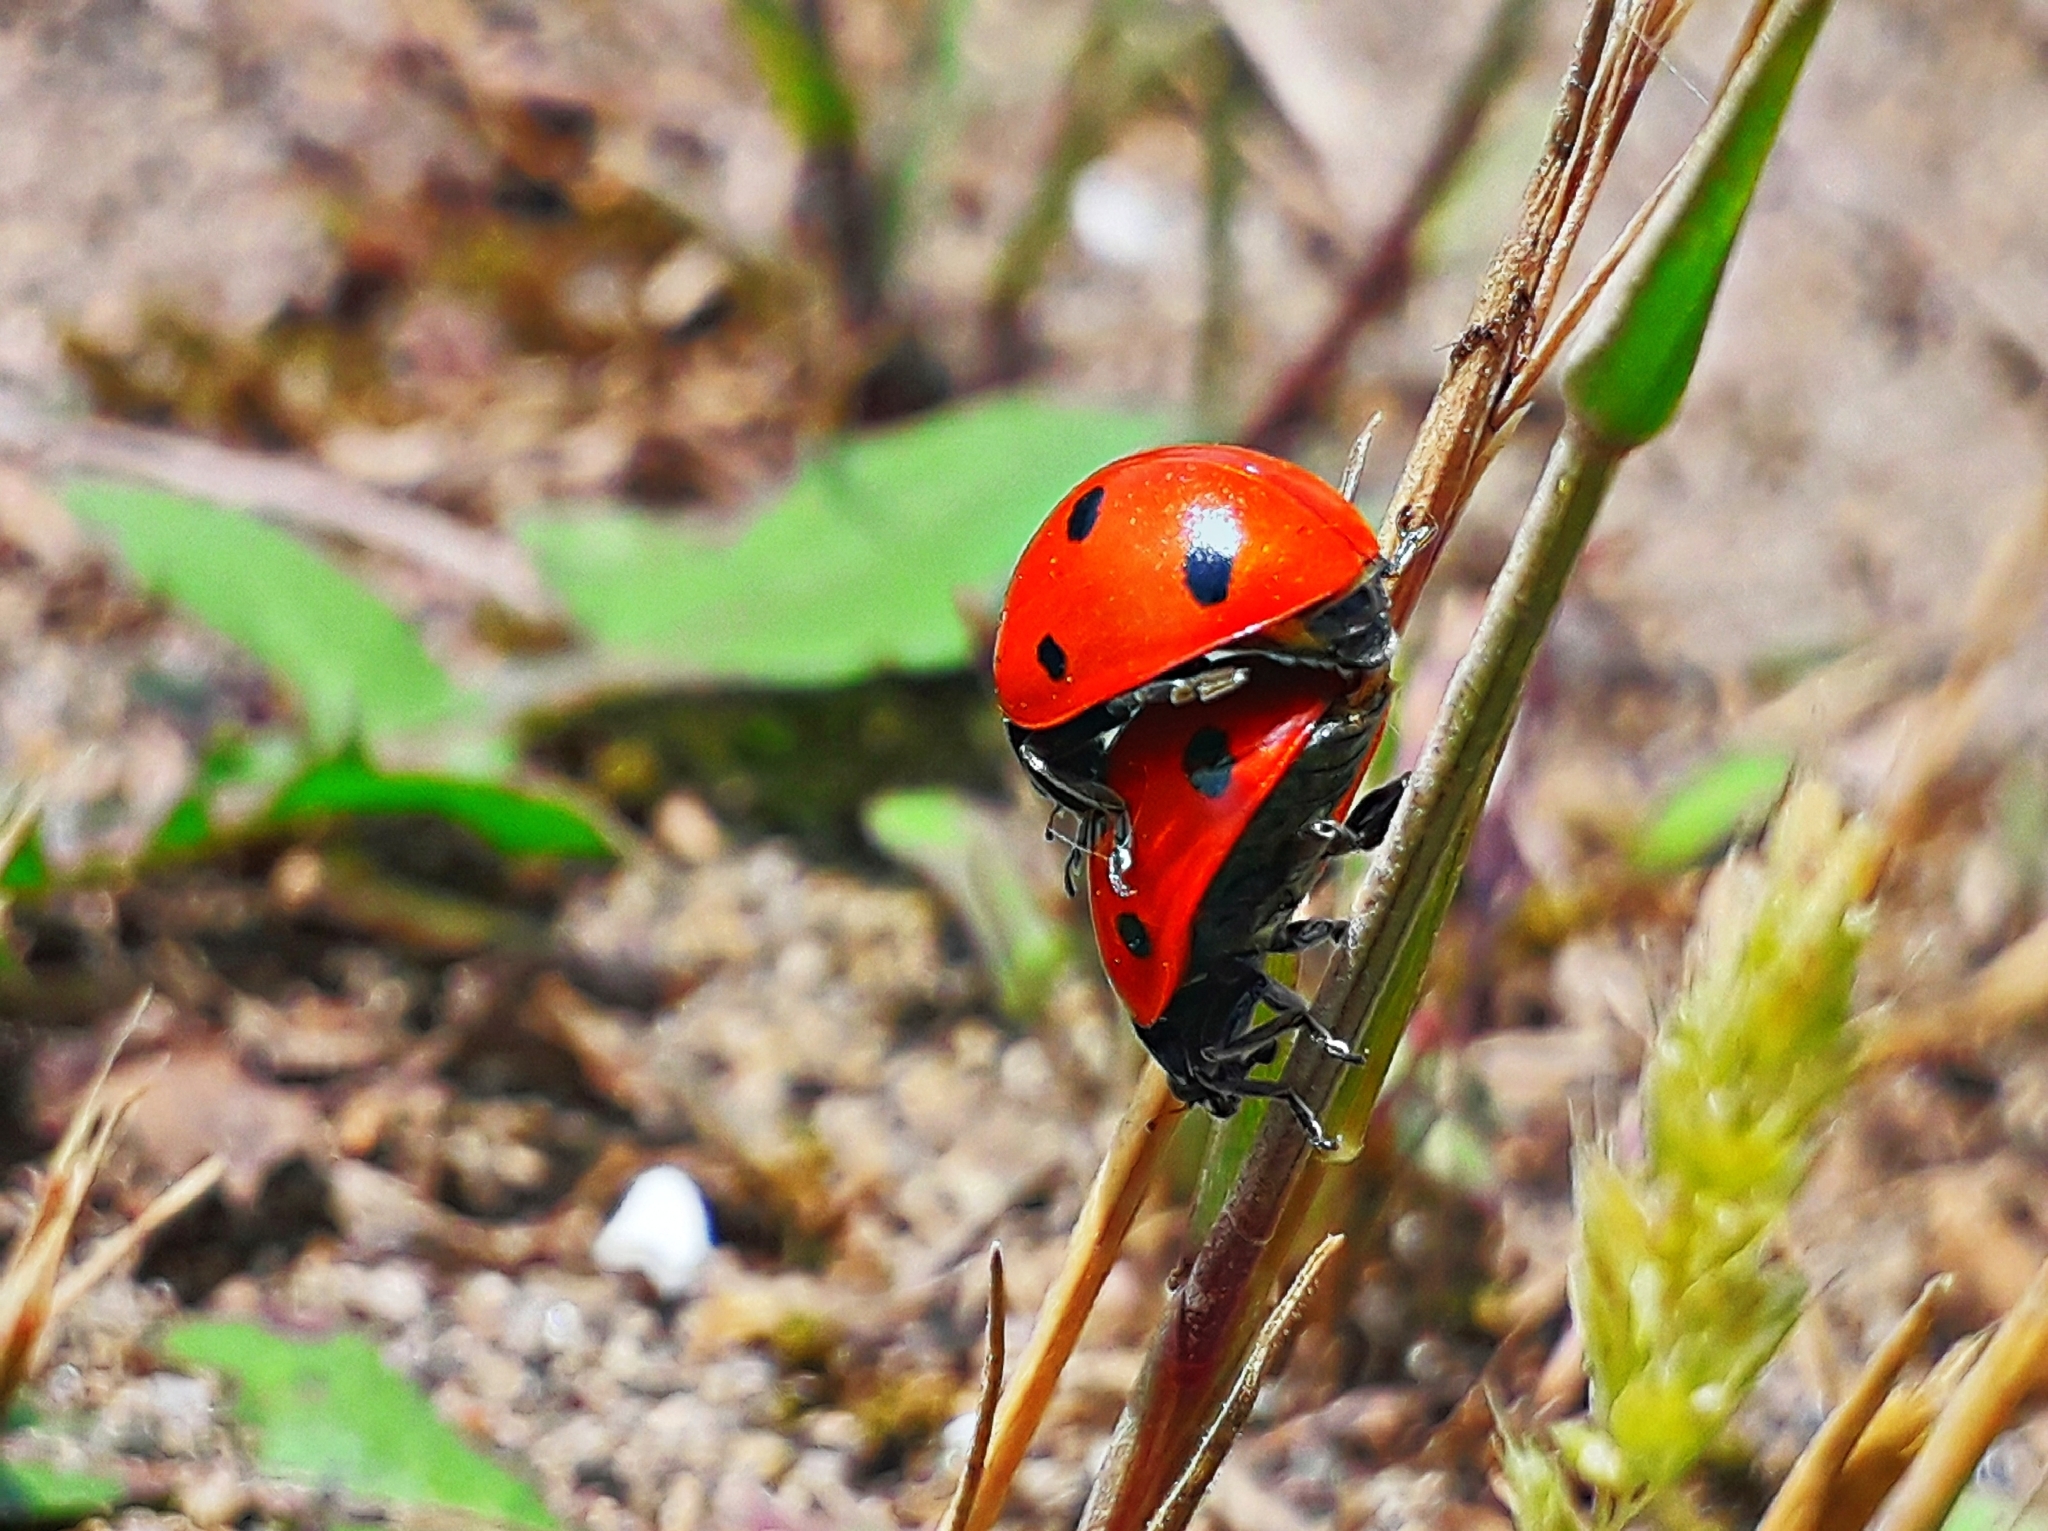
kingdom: Animalia
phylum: Arthropoda
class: Insecta
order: Coleoptera
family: Coccinellidae
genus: Coccinella
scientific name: Coccinella septempunctata
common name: Sevenspotted lady beetle
